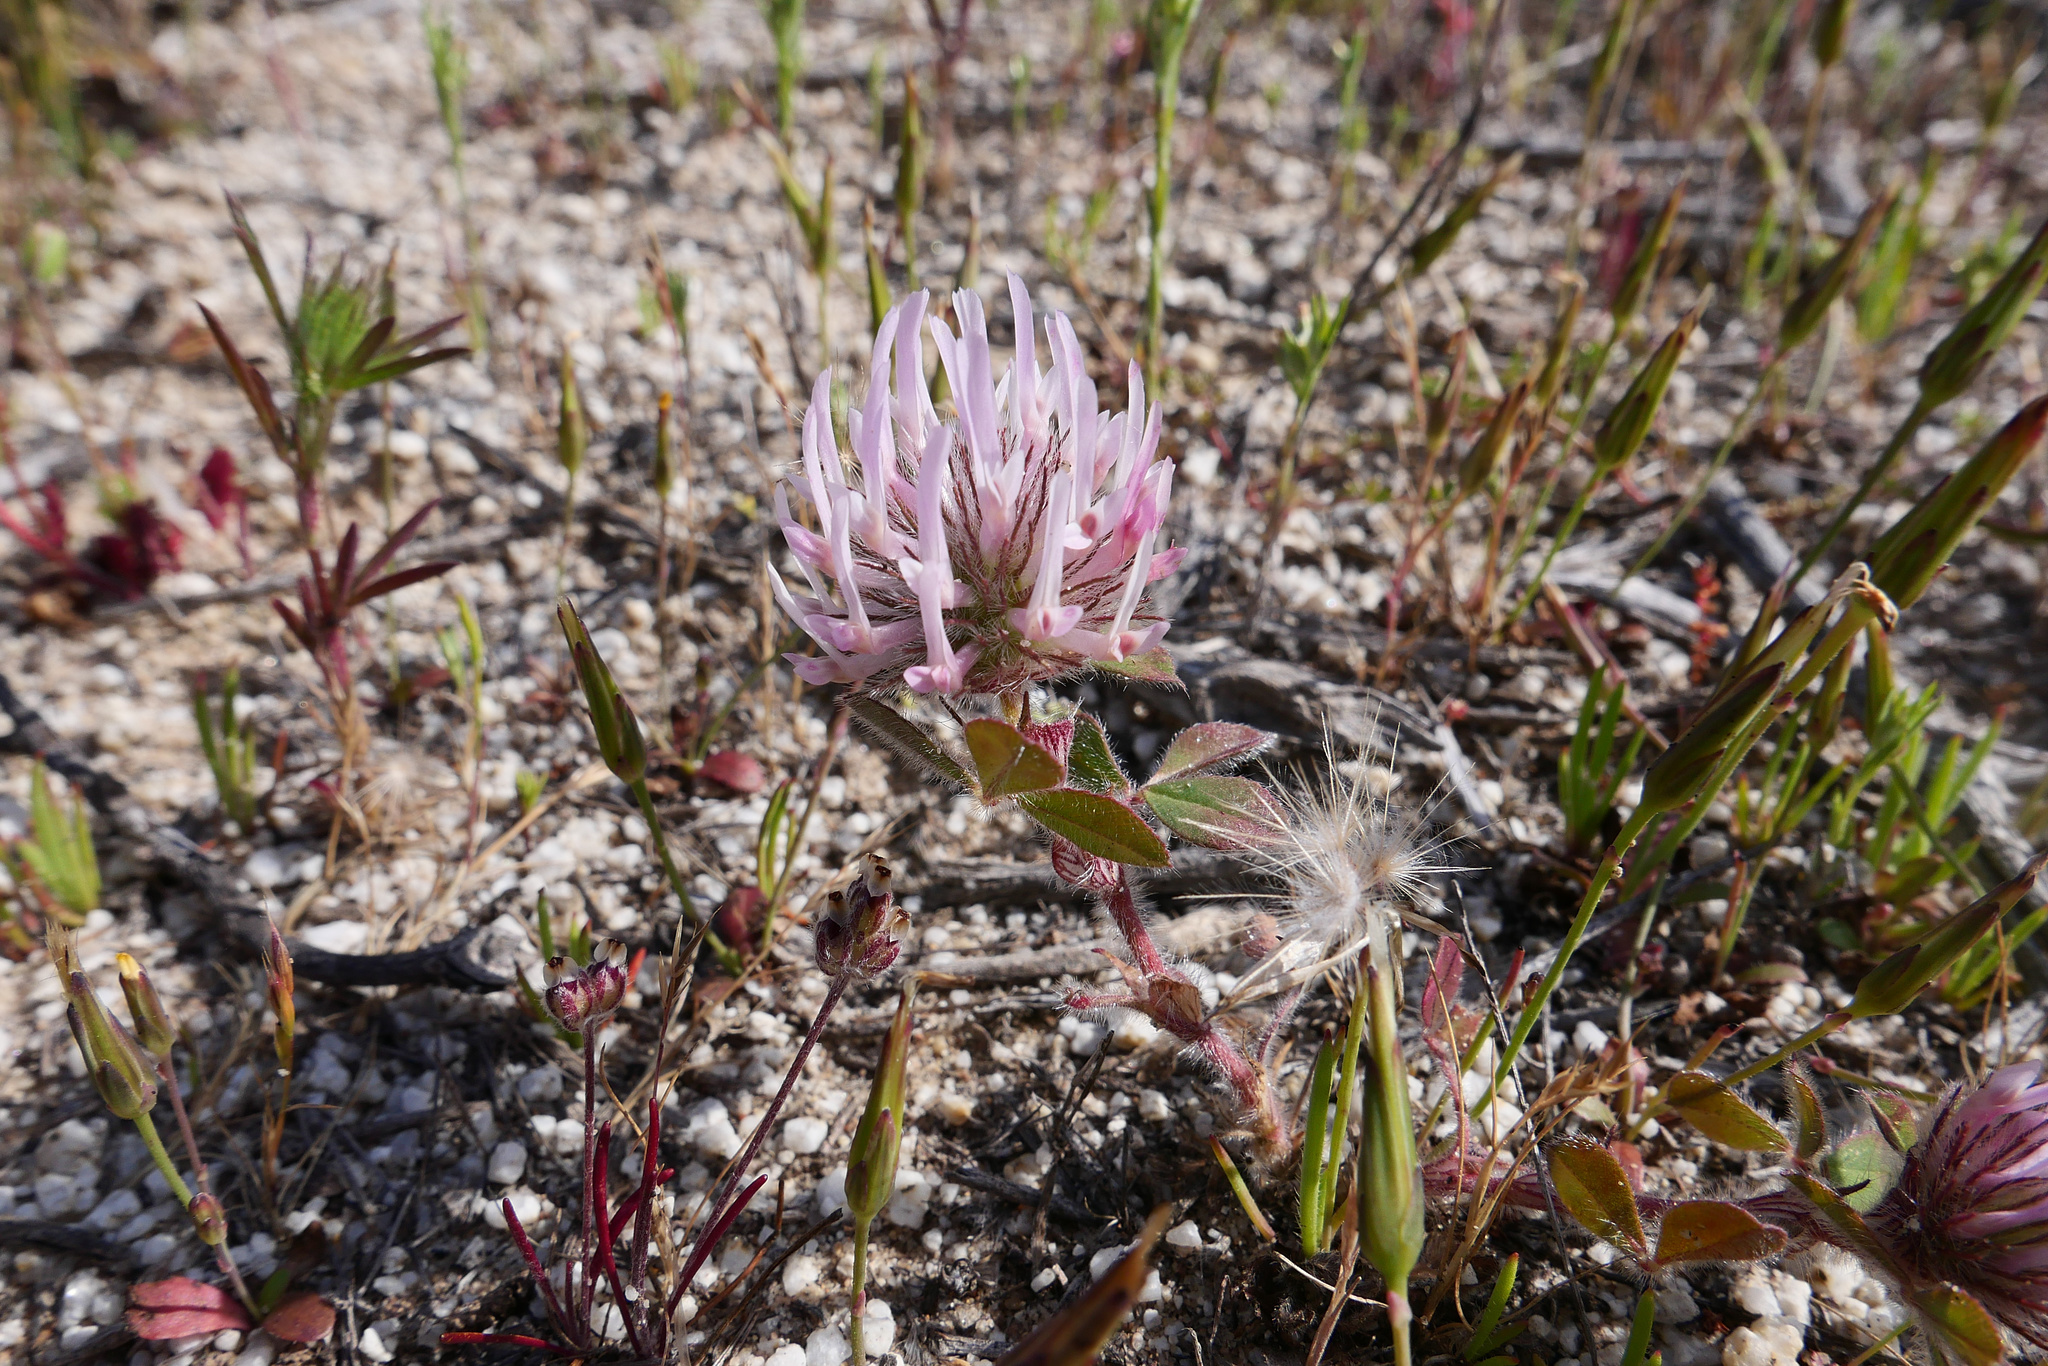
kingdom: Plantae
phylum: Tracheophyta
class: Magnoliopsida
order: Fabales
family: Fabaceae
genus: Trifolium
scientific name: Trifolium hirtum
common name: Rose clover
